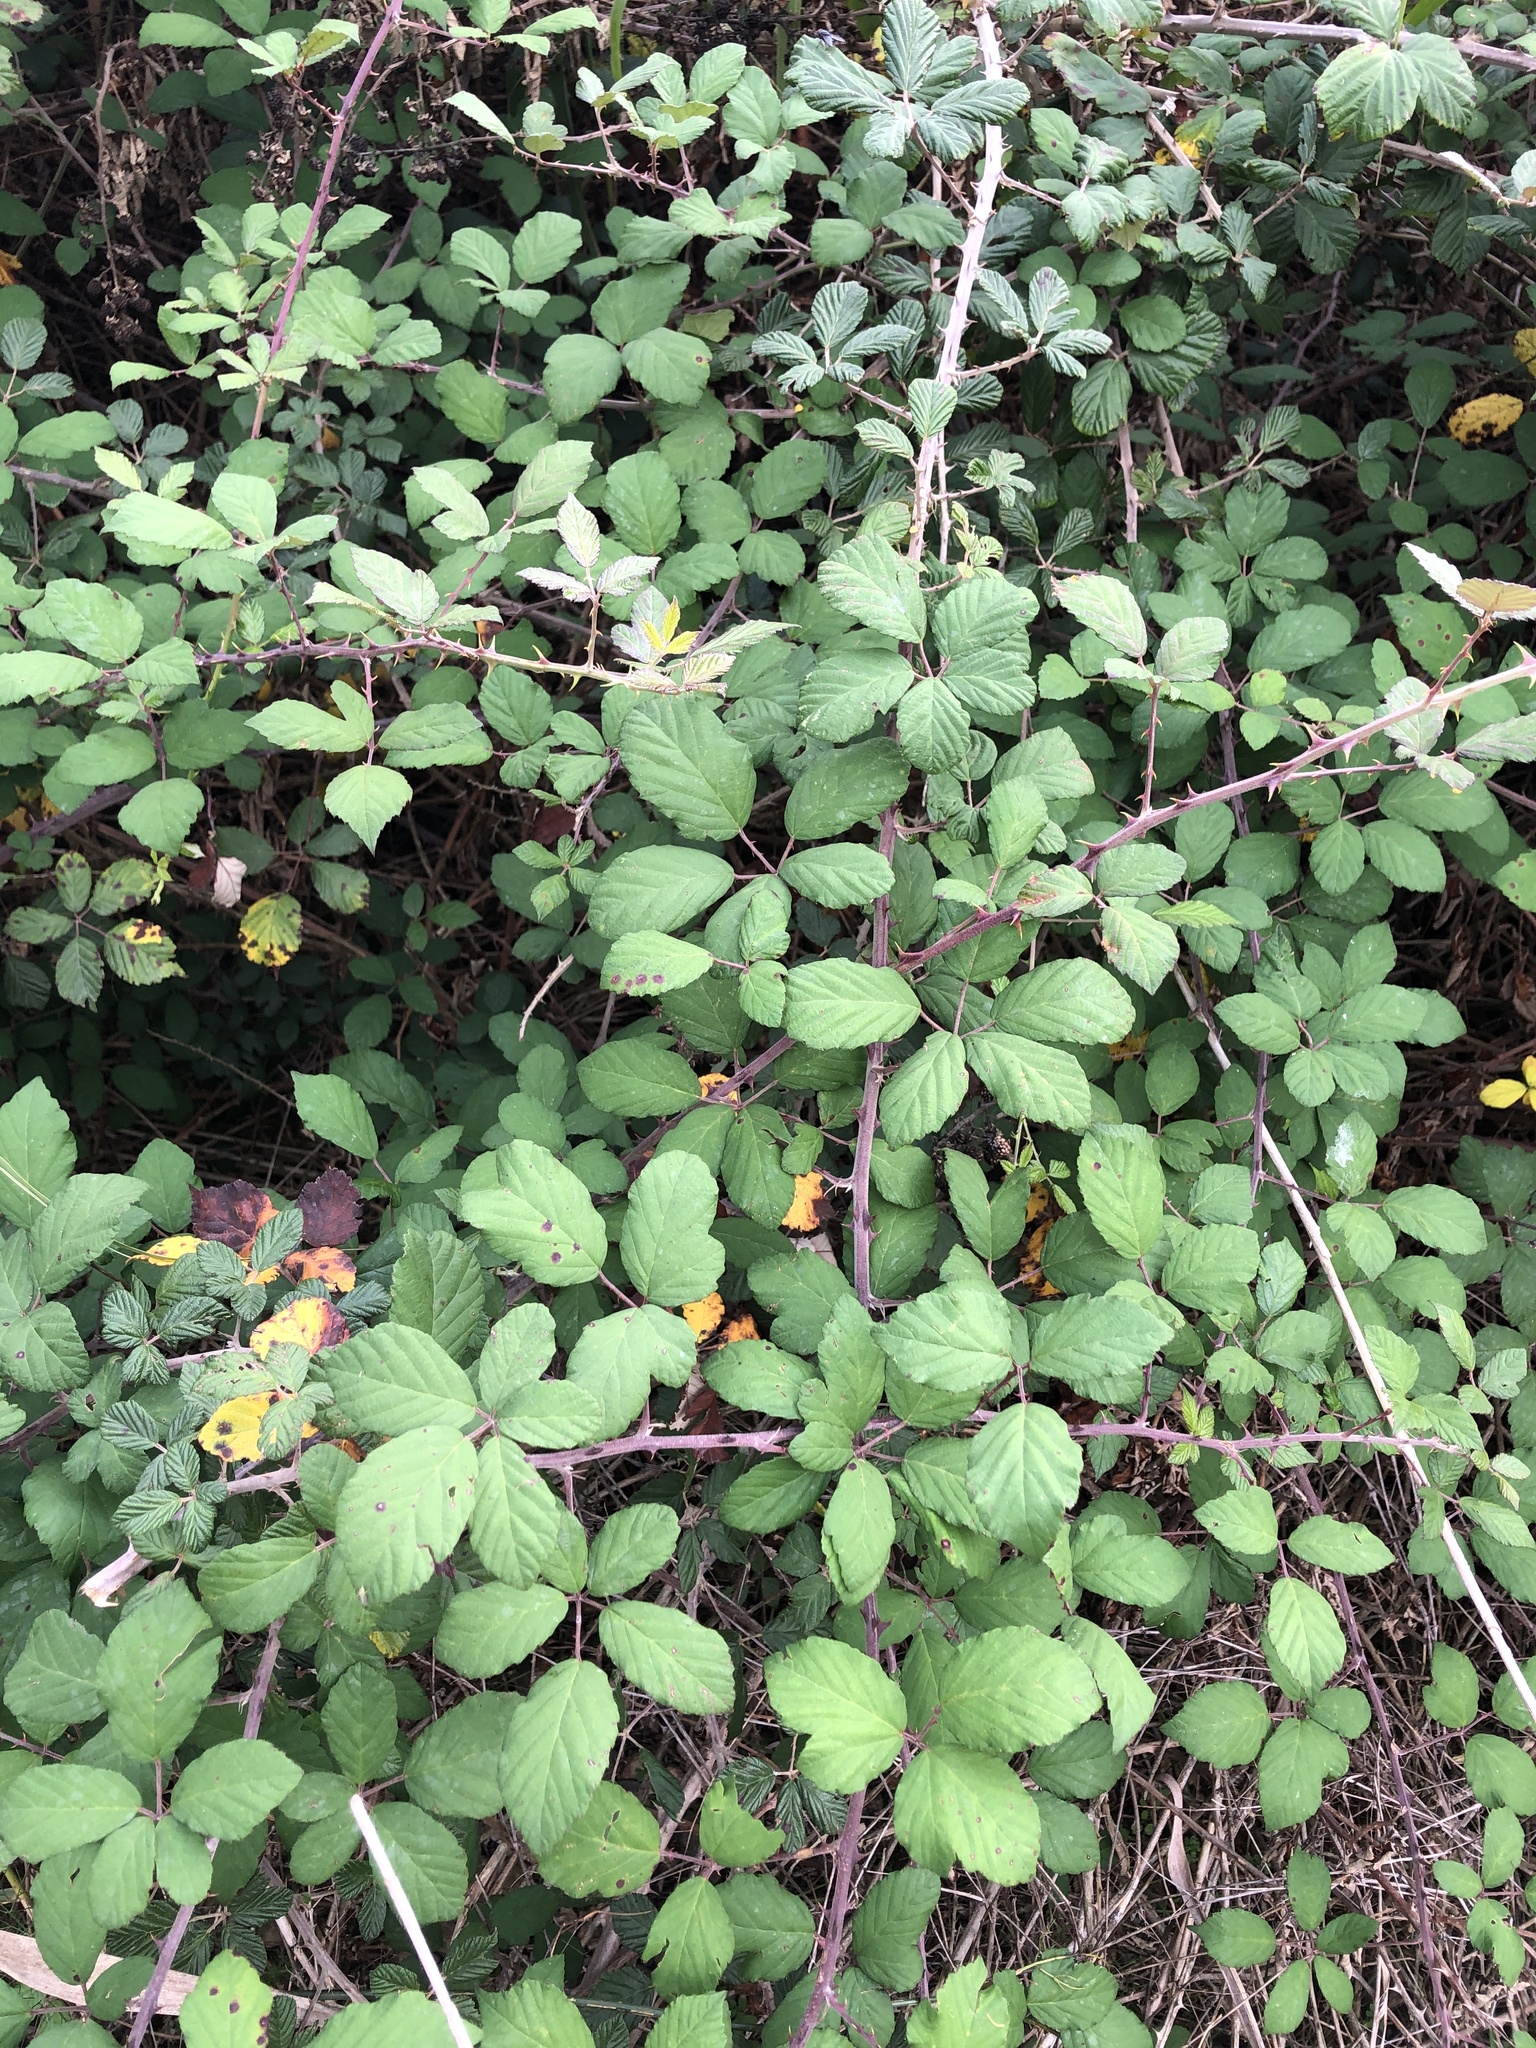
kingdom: Plantae
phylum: Tracheophyta
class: Magnoliopsida
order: Rosales
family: Rosaceae
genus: Rubus
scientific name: Rubus ulmifolius
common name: Elmleaf blackberry
